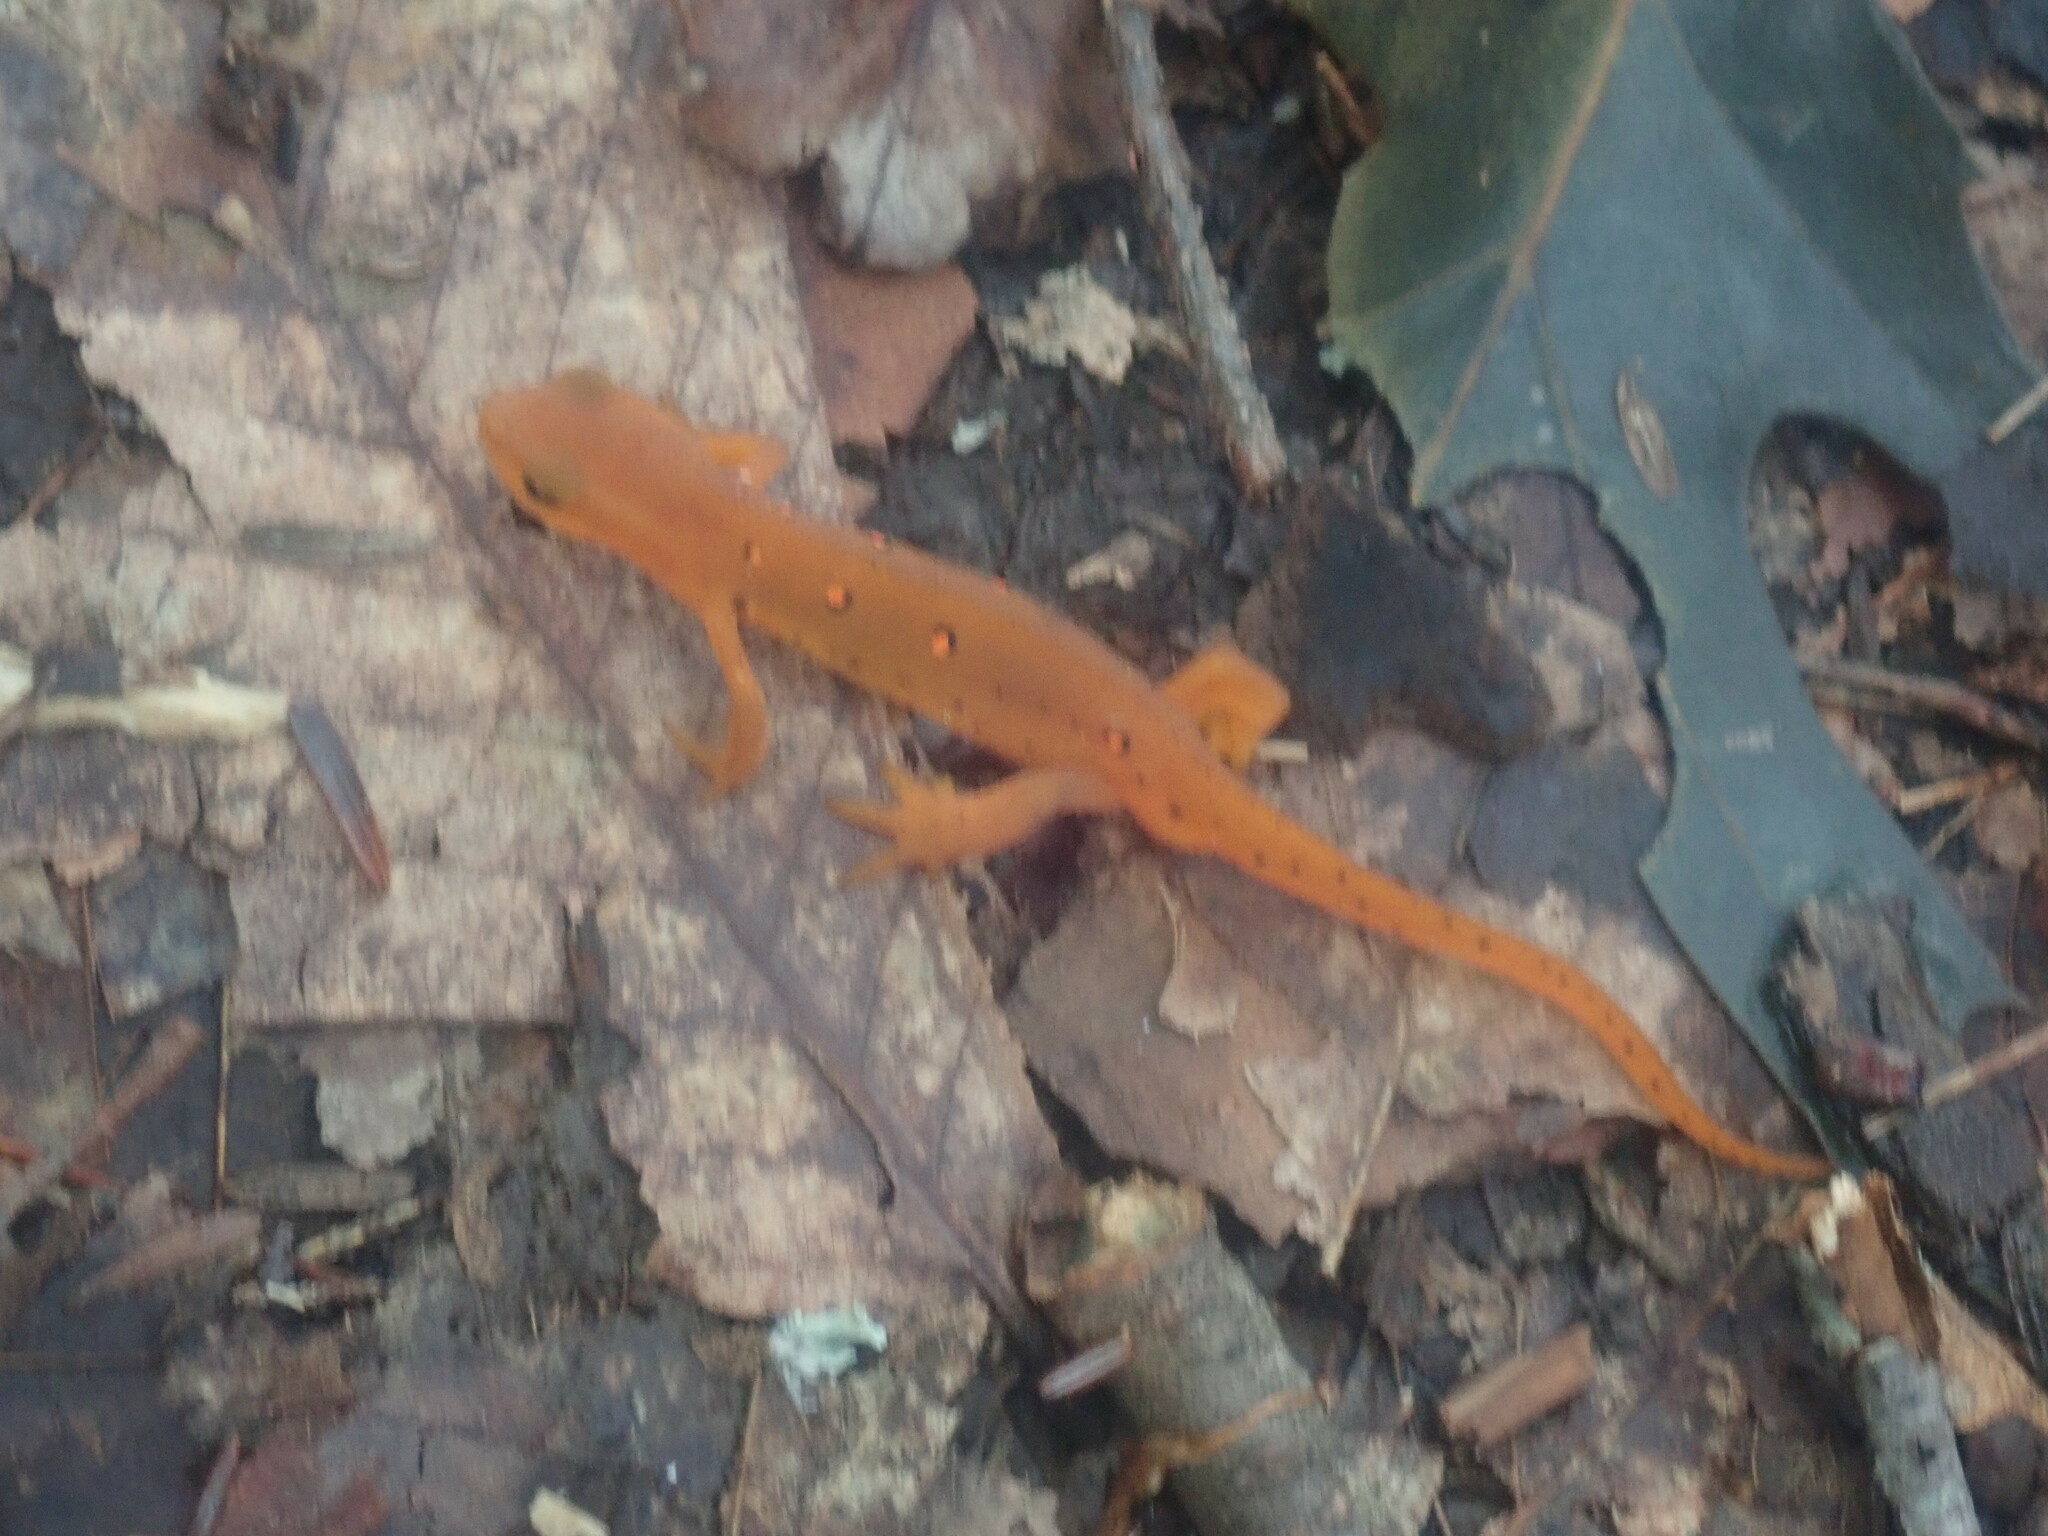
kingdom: Animalia
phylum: Chordata
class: Amphibia
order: Caudata
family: Salamandridae
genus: Notophthalmus
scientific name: Notophthalmus viridescens
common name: Eastern newt
